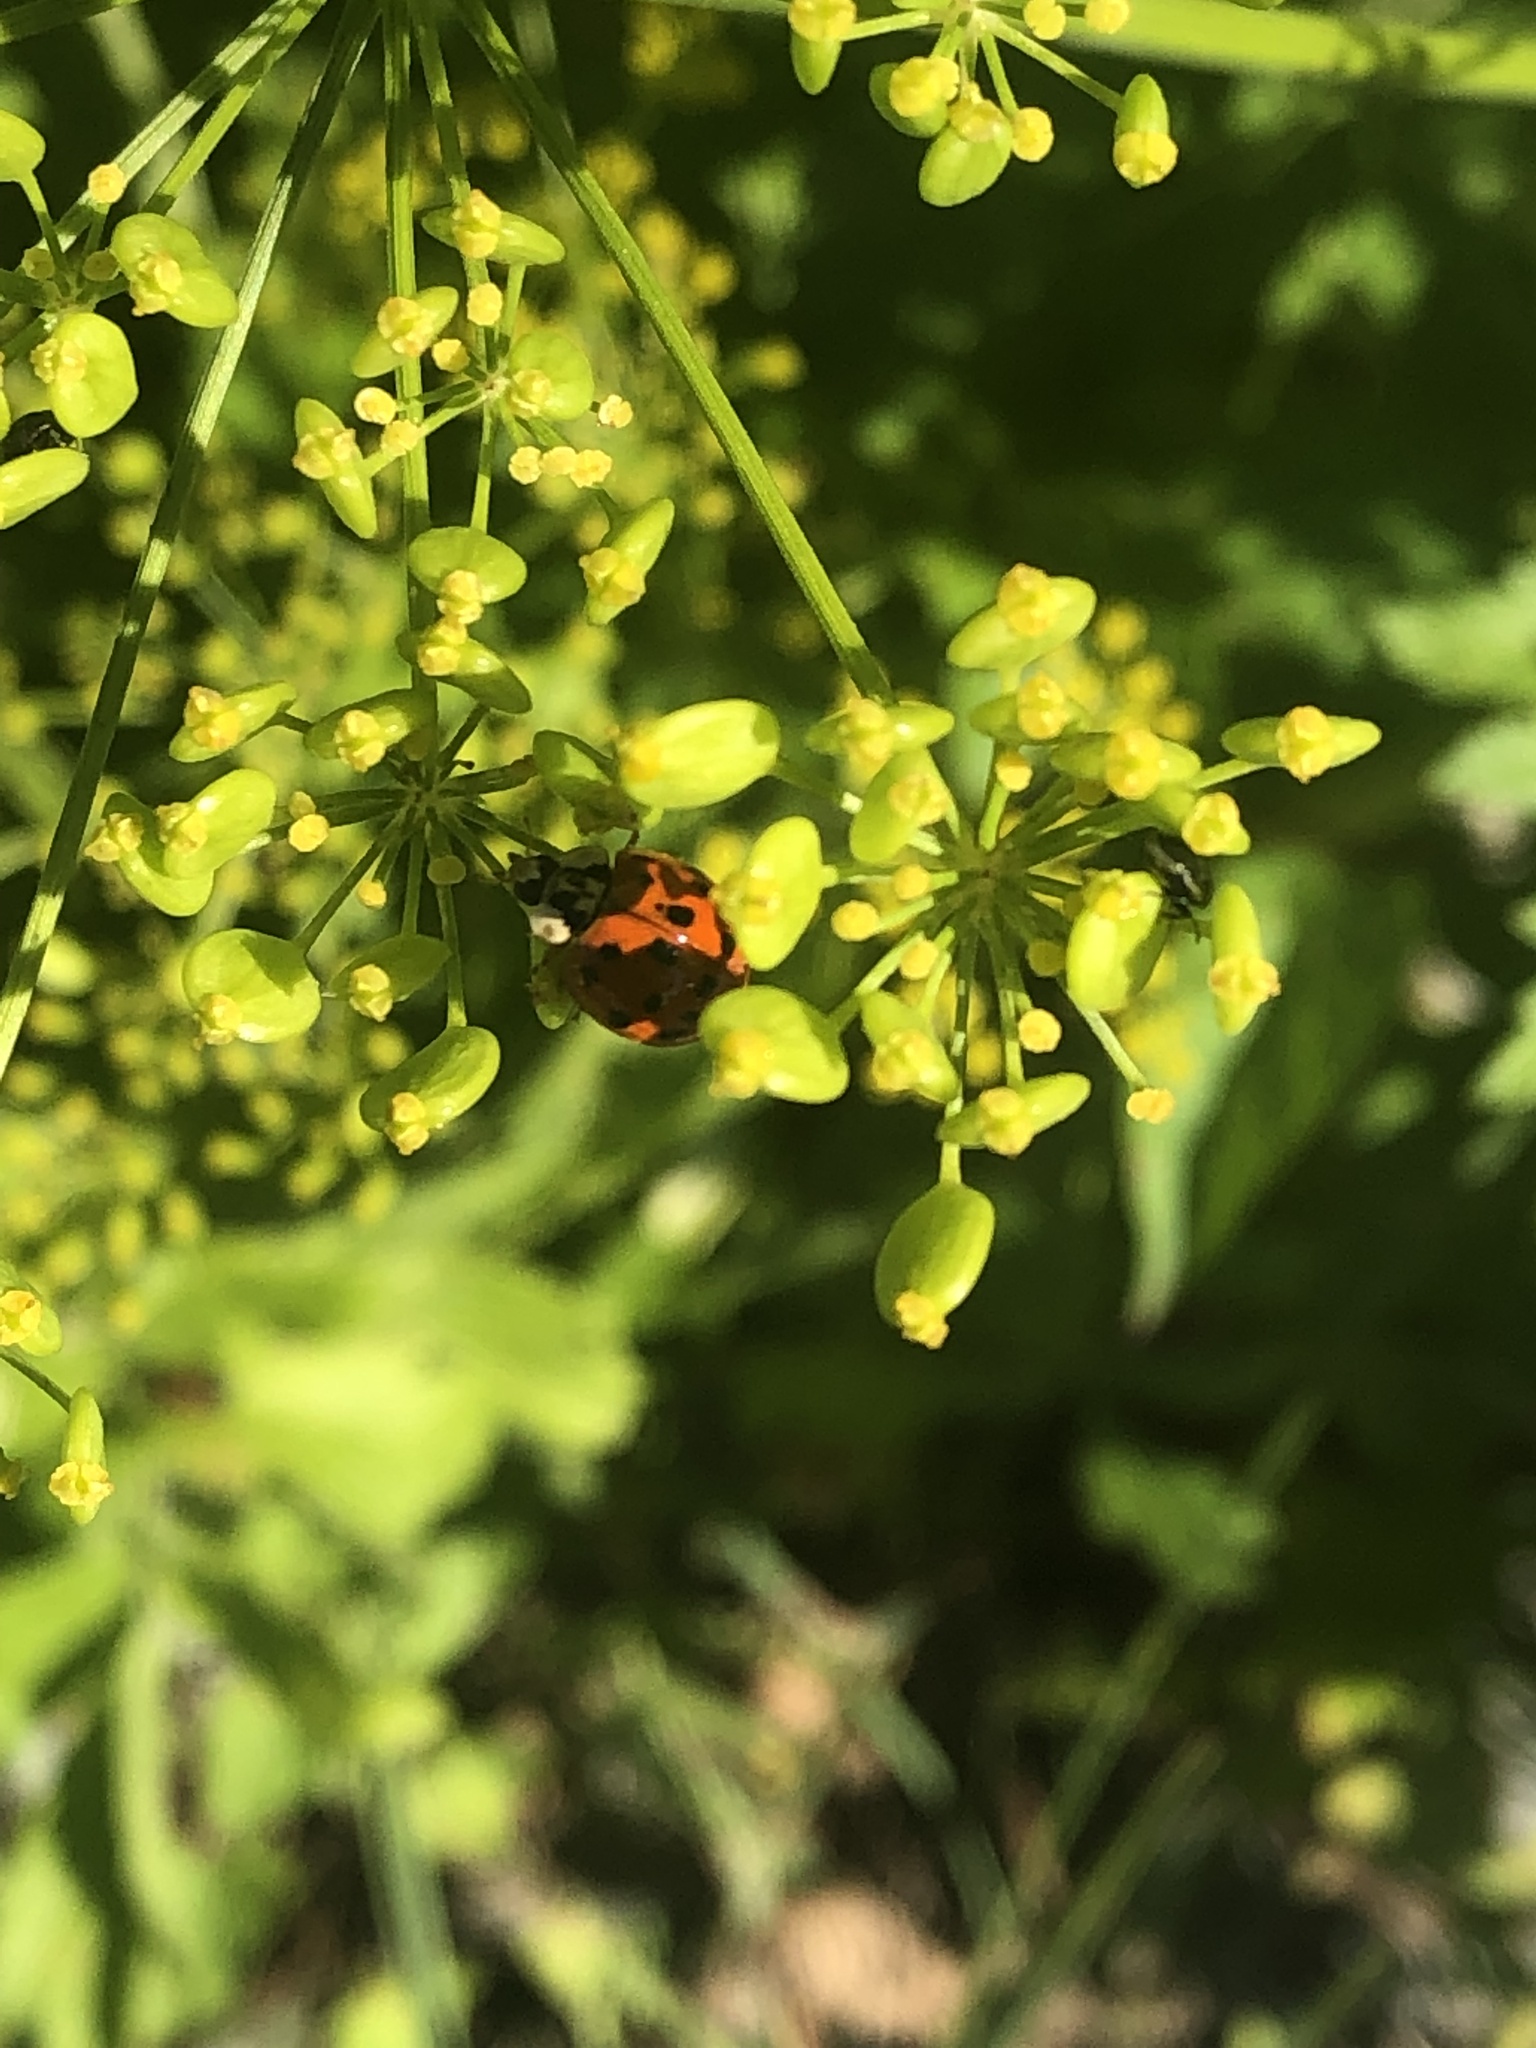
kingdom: Animalia
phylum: Arthropoda
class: Insecta
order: Coleoptera
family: Coccinellidae
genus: Harmonia
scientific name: Harmonia axyridis
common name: Harlequin ladybird
